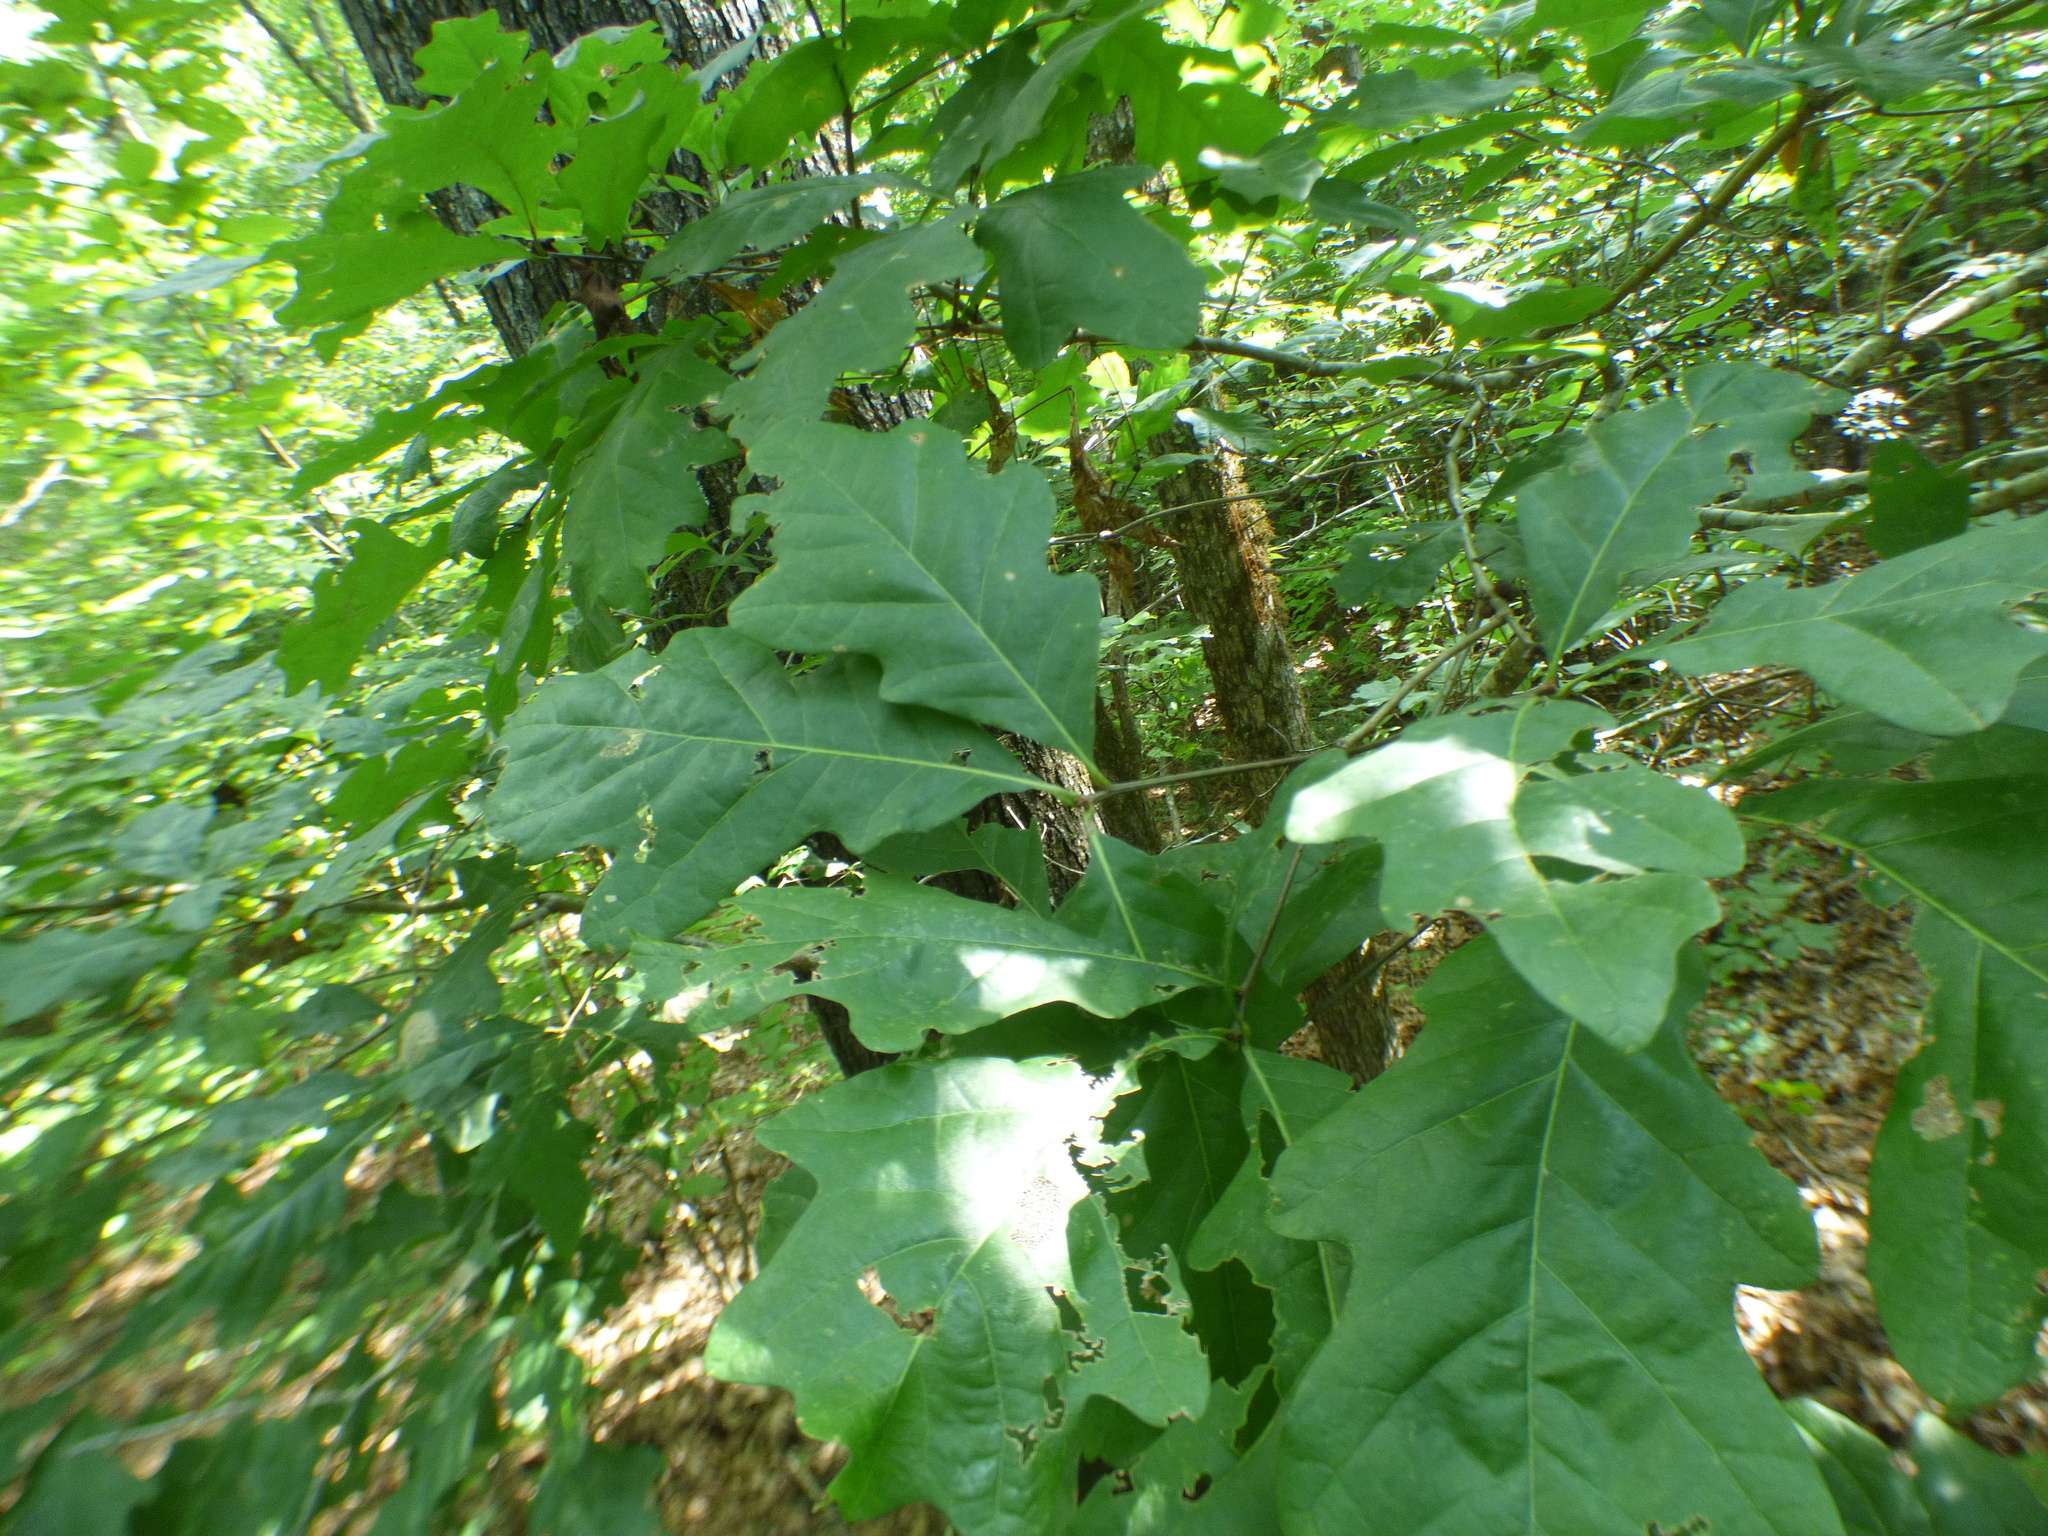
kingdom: Plantae
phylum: Tracheophyta
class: Magnoliopsida
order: Fagales
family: Fagaceae
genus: Quercus
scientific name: Quercus alba
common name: White oak
